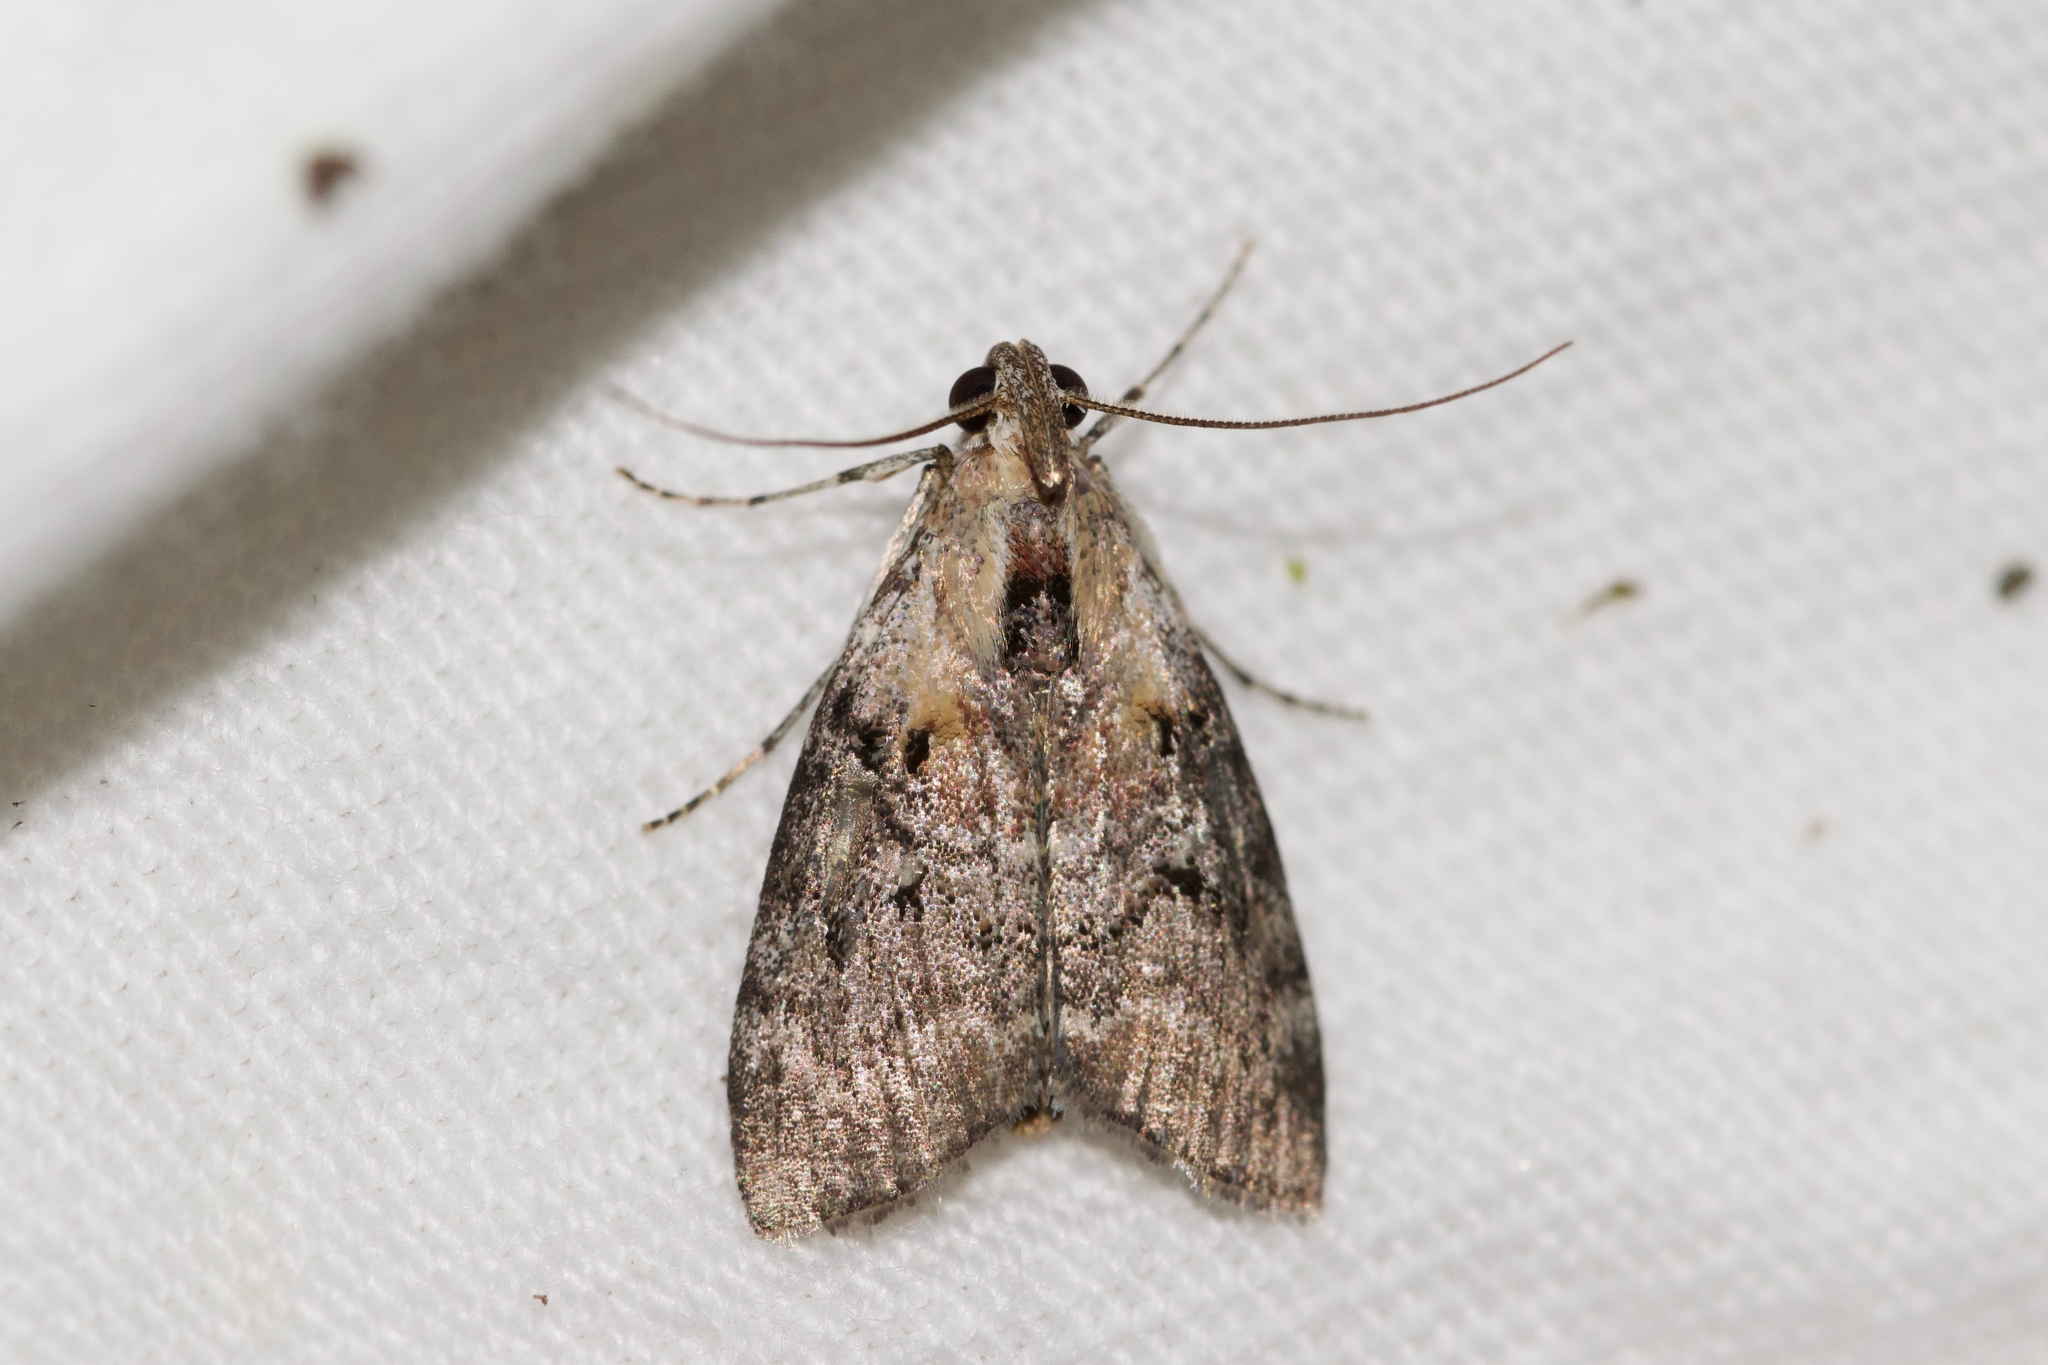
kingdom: Animalia
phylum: Arthropoda
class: Insecta
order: Lepidoptera
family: Pyralidae
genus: Pococera
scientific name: Pococera expandens
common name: Striped oak webworm moth
